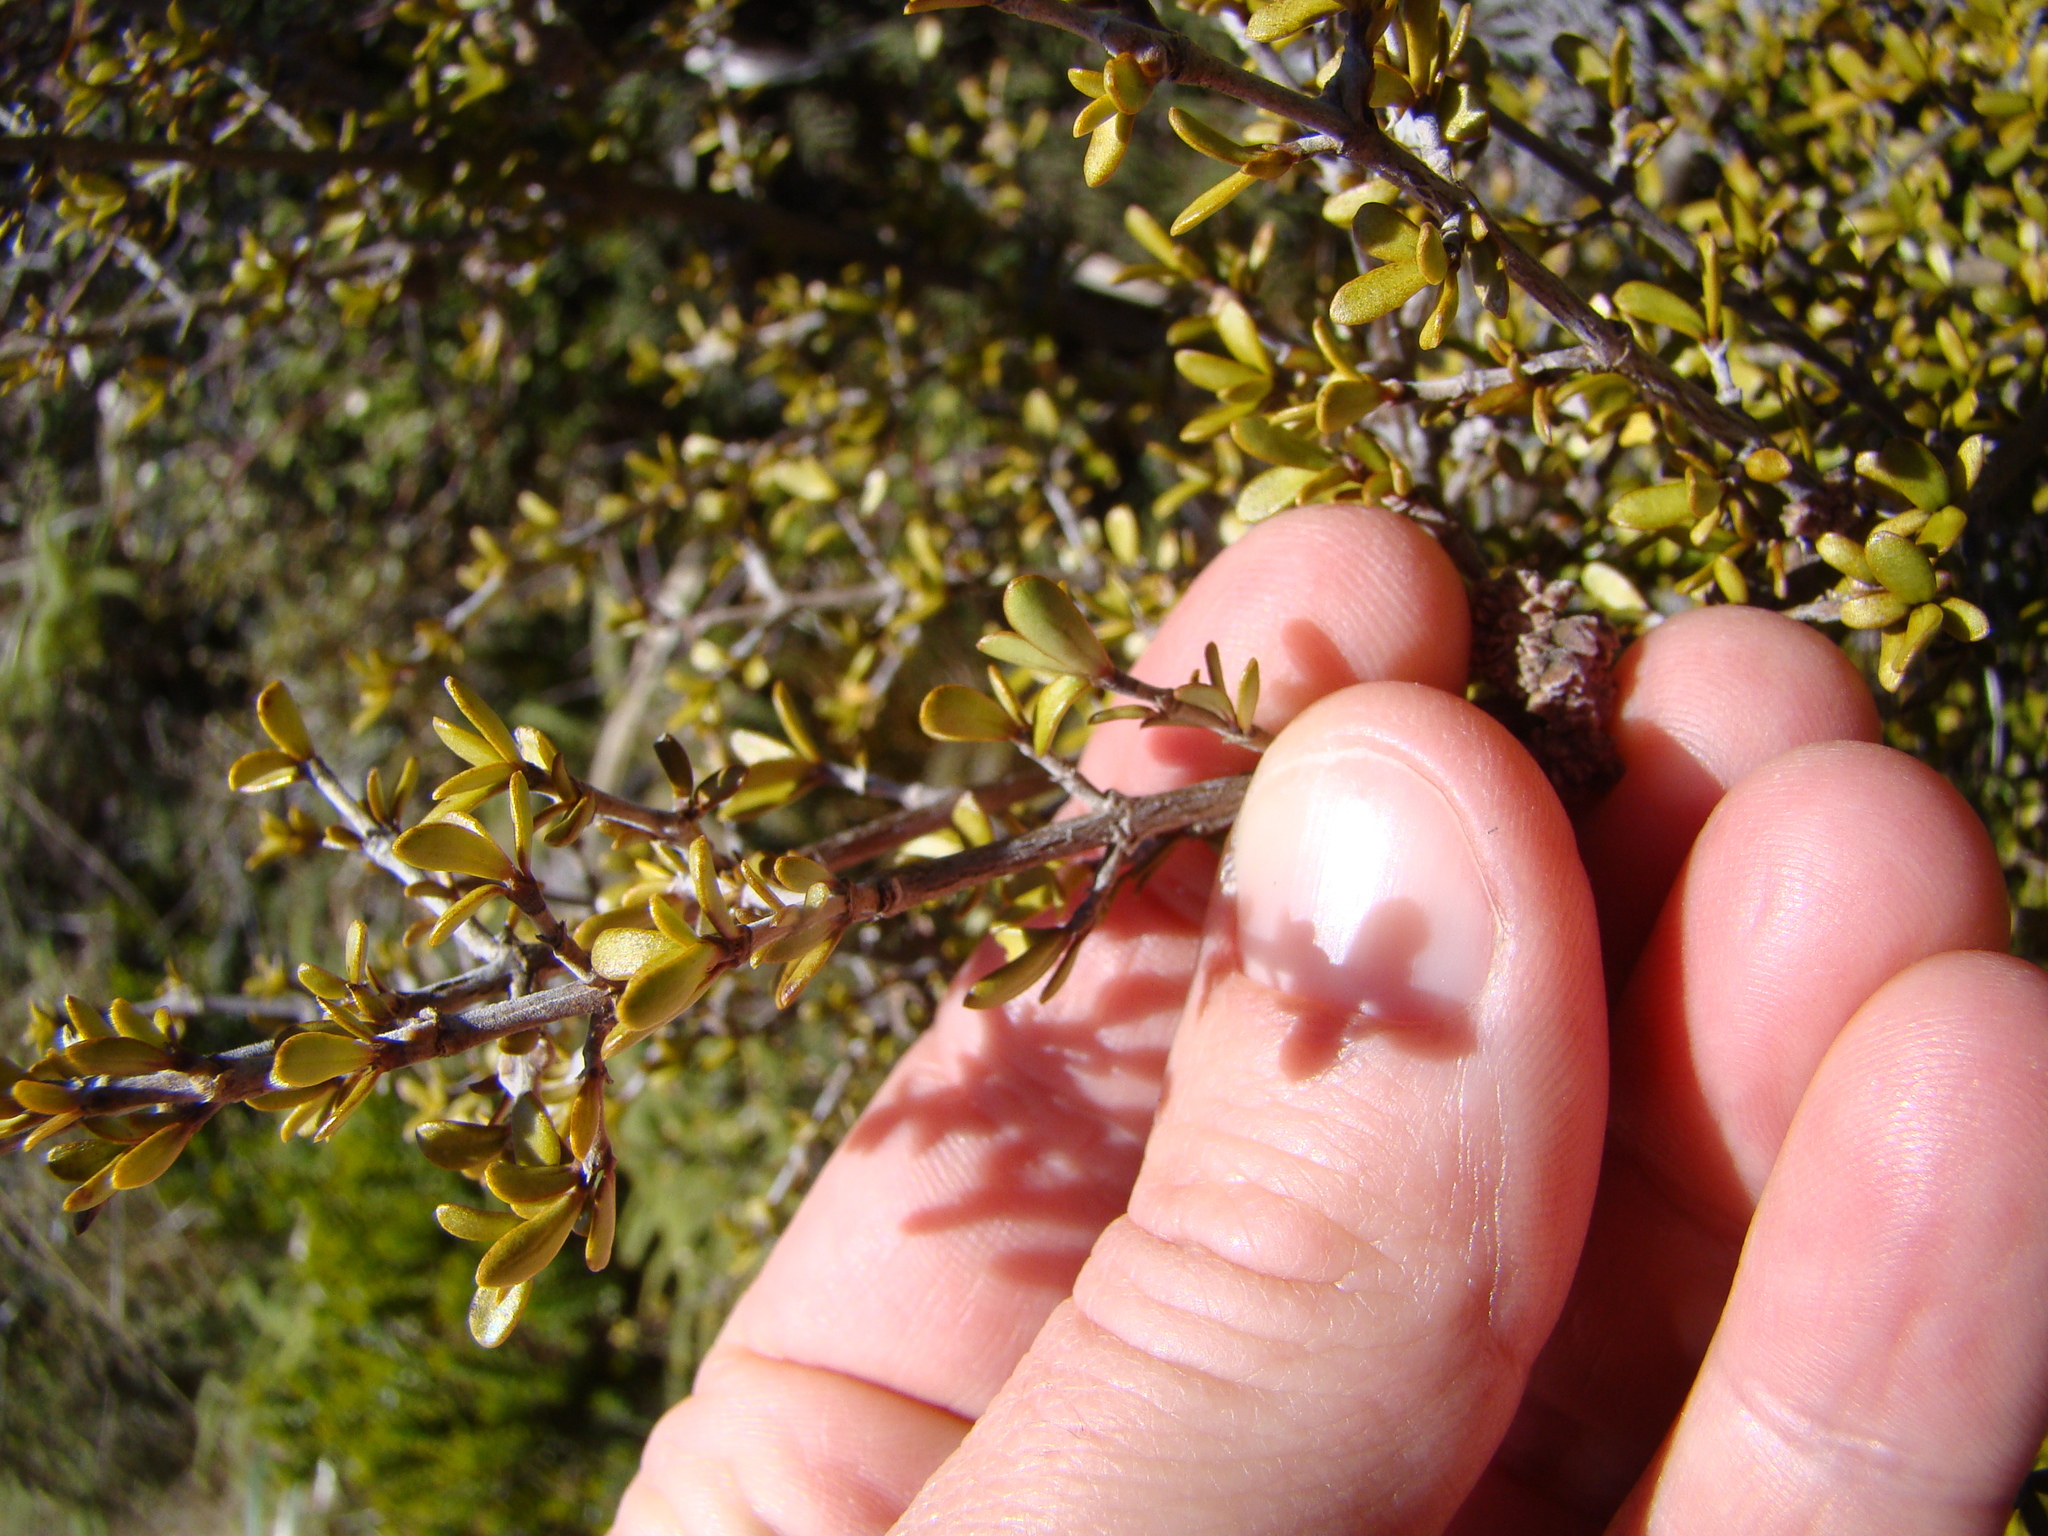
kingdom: Plantae
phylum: Tracheophyta
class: Magnoliopsida
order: Gentianales
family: Rubiaceae
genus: Coprosma
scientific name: Coprosma dumosa
